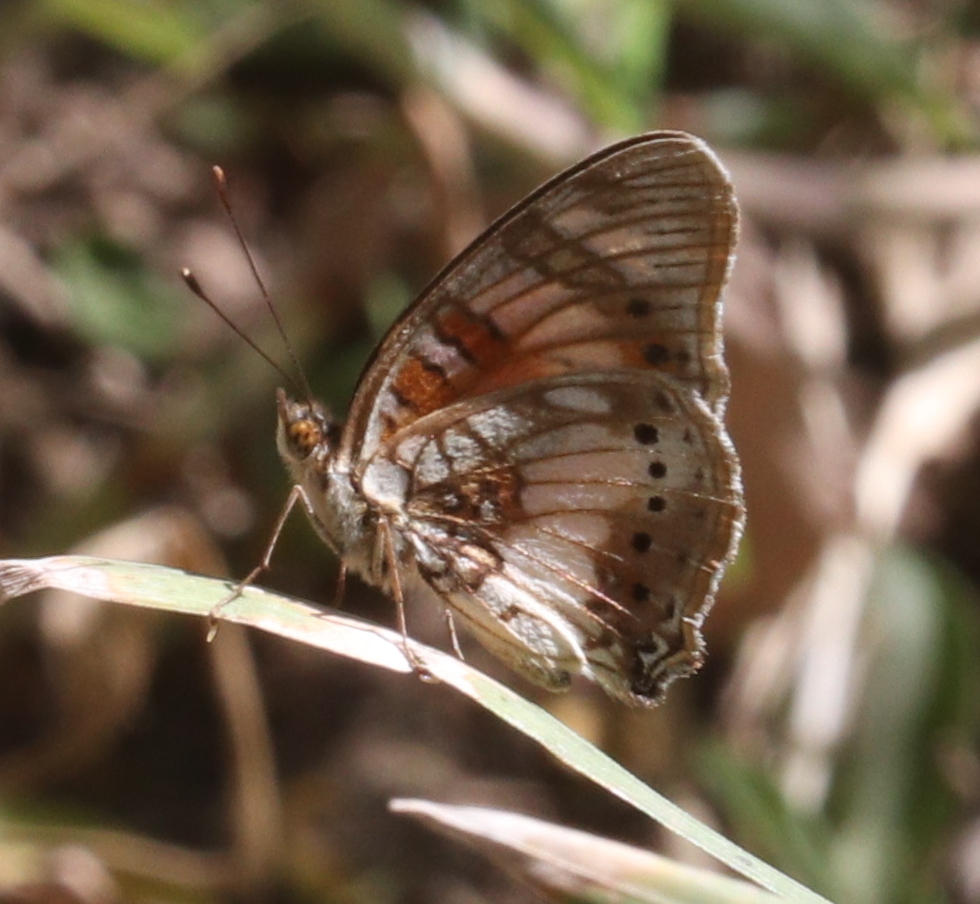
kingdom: Animalia
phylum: Arthropoda
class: Insecta
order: Lepidoptera
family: Nymphalidae
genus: Junonia
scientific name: Junonia sophia
